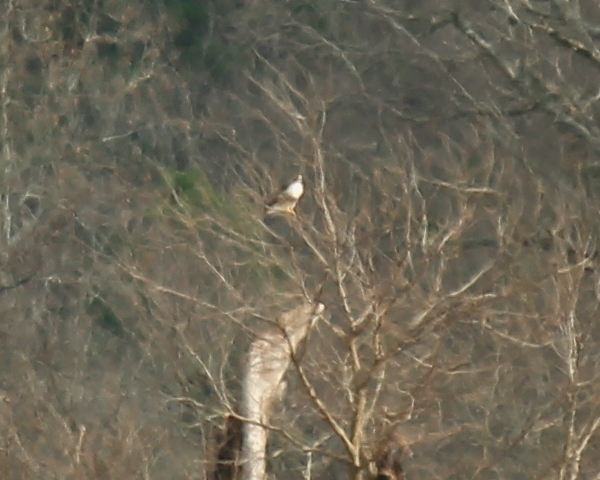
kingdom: Animalia
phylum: Chordata
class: Aves
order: Accipitriformes
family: Accipitridae
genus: Buteo
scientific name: Buteo jamaicensis
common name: Red-tailed hawk
